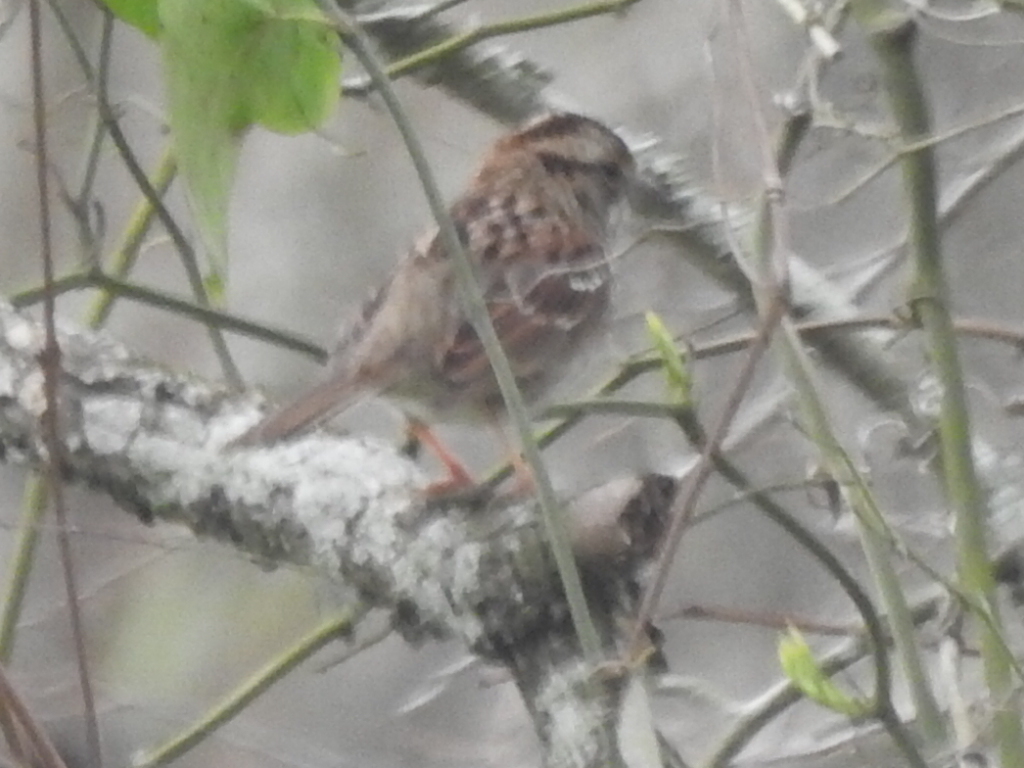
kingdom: Animalia
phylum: Chordata
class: Aves
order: Passeriformes
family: Passerellidae
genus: Zonotrichia
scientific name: Zonotrichia albicollis
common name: White-throated sparrow
